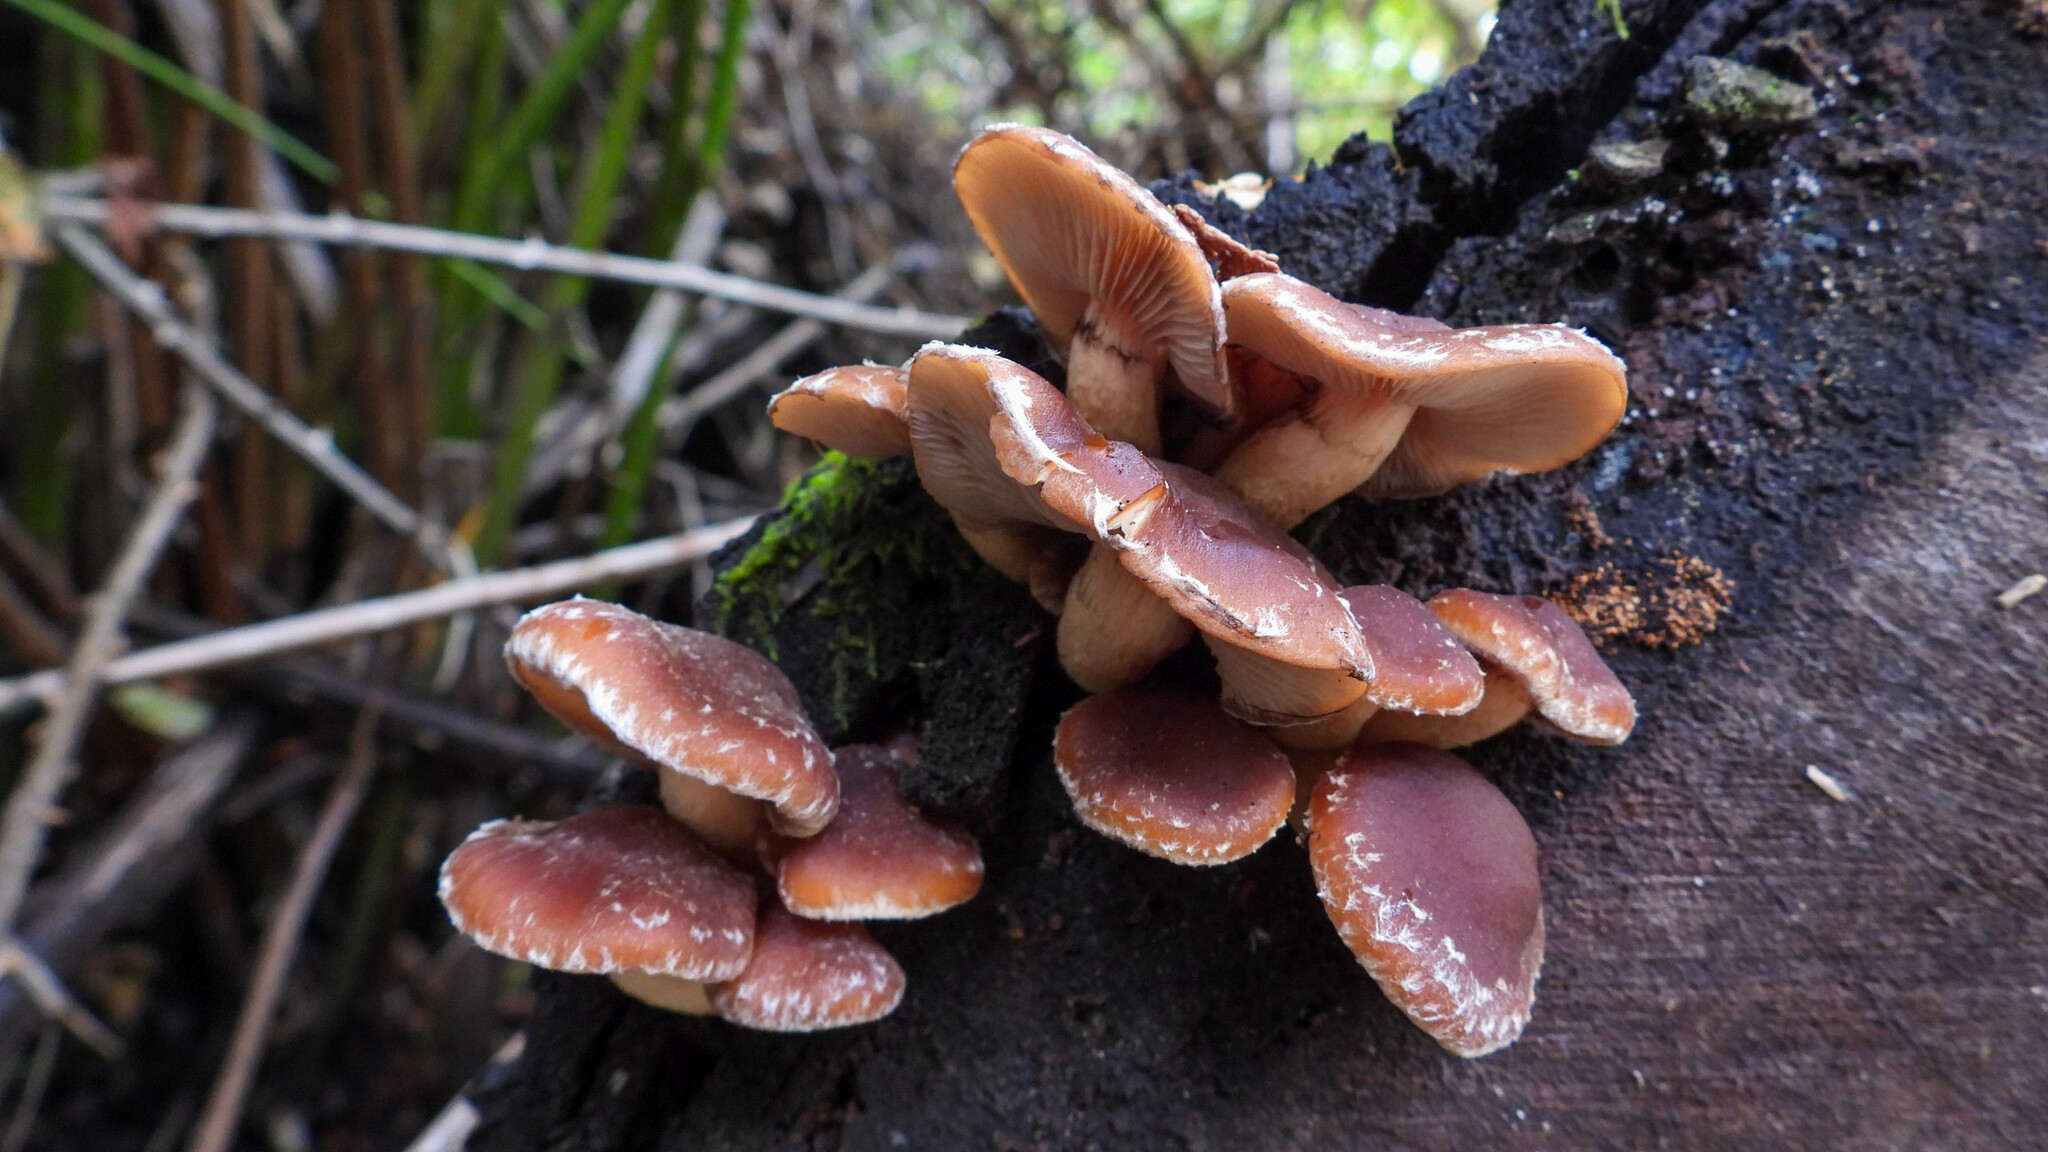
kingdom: Fungi
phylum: Basidiomycota
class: Agaricomycetes
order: Agaricales
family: Strophariaceae
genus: Hypholoma
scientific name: Hypholoma brunneum
